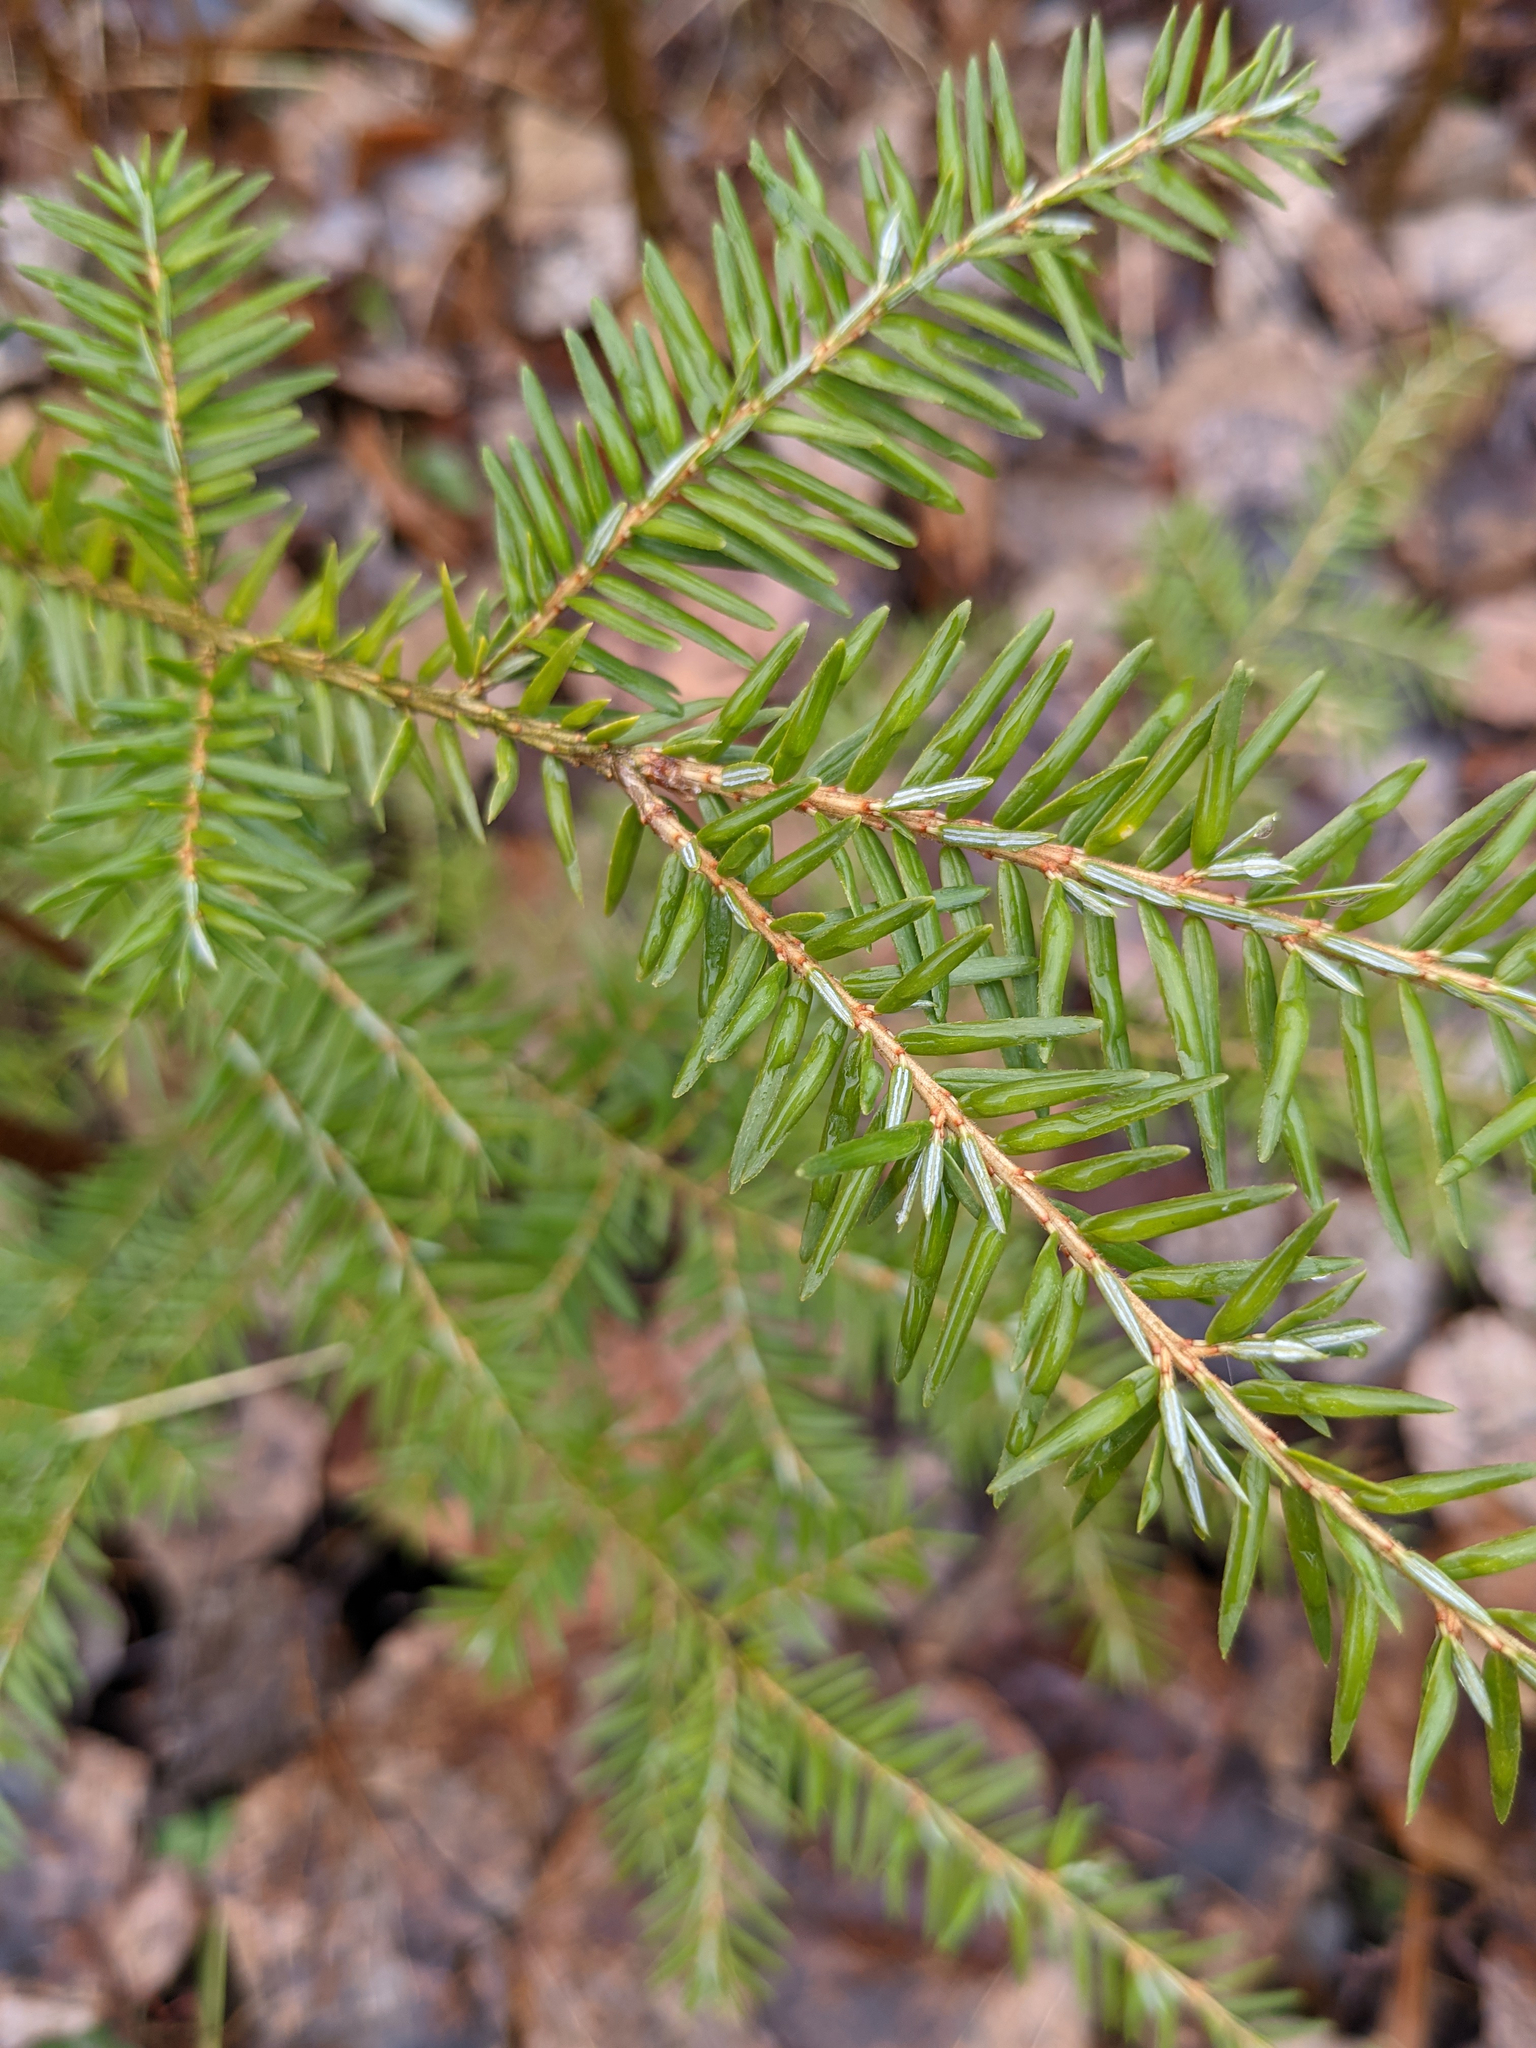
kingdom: Plantae
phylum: Tracheophyta
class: Pinopsida
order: Pinales
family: Pinaceae
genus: Tsuga
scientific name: Tsuga canadensis
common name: Eastern hemlock
